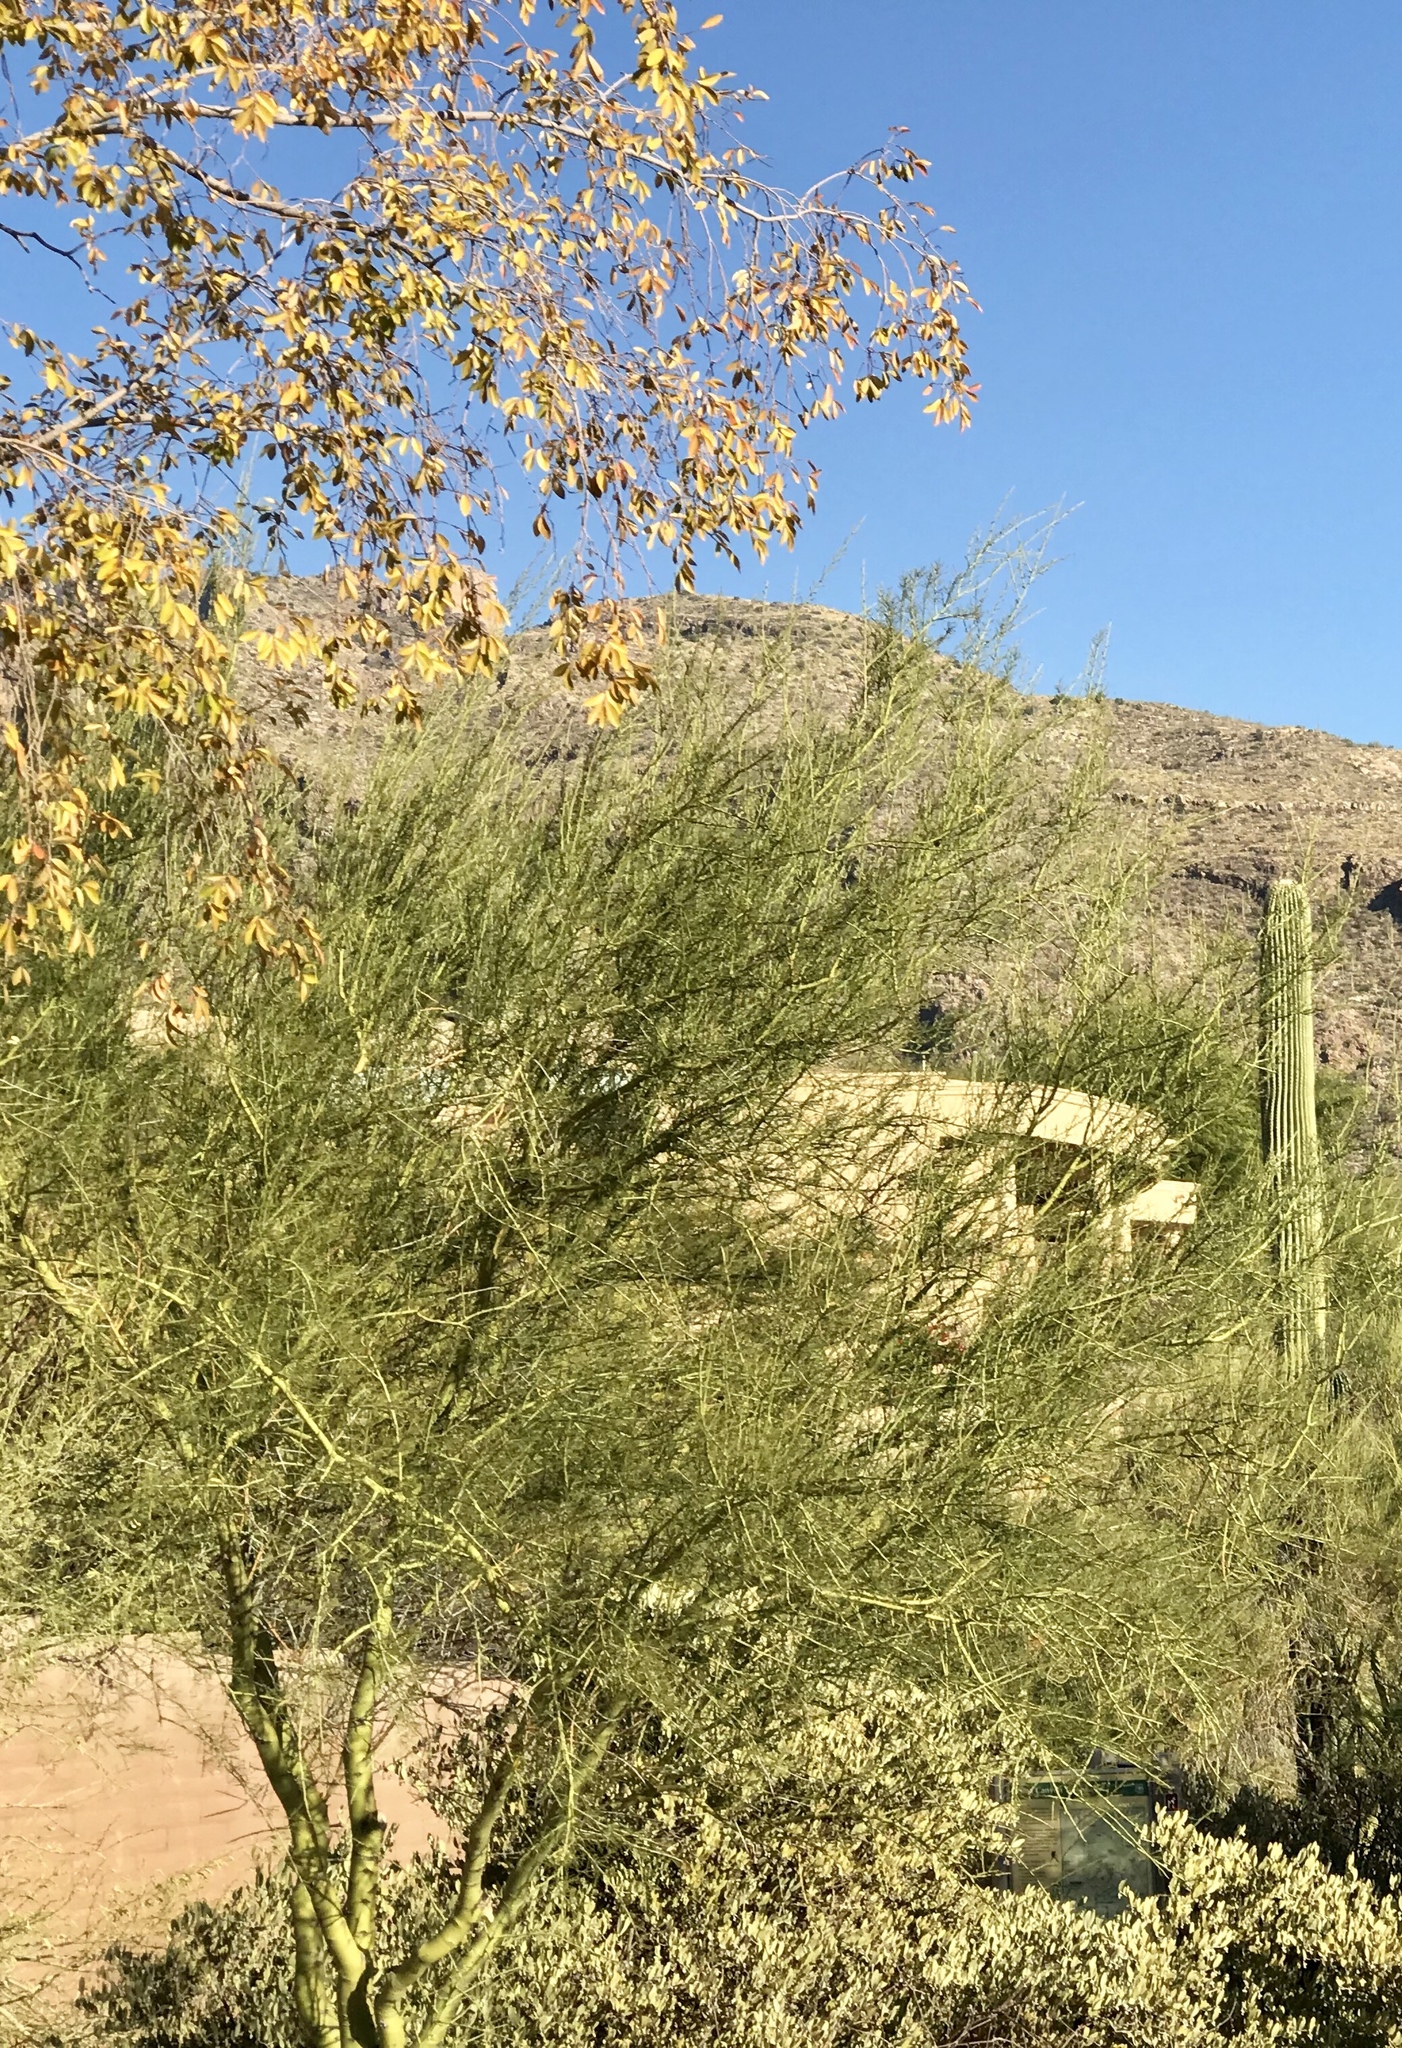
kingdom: Plantae
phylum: Tracheophyta
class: Magnoliopsida
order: Fabales
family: Fabaceae
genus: Parkinsonia
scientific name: Parkinsonia microphylla
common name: Yellow paloverde
